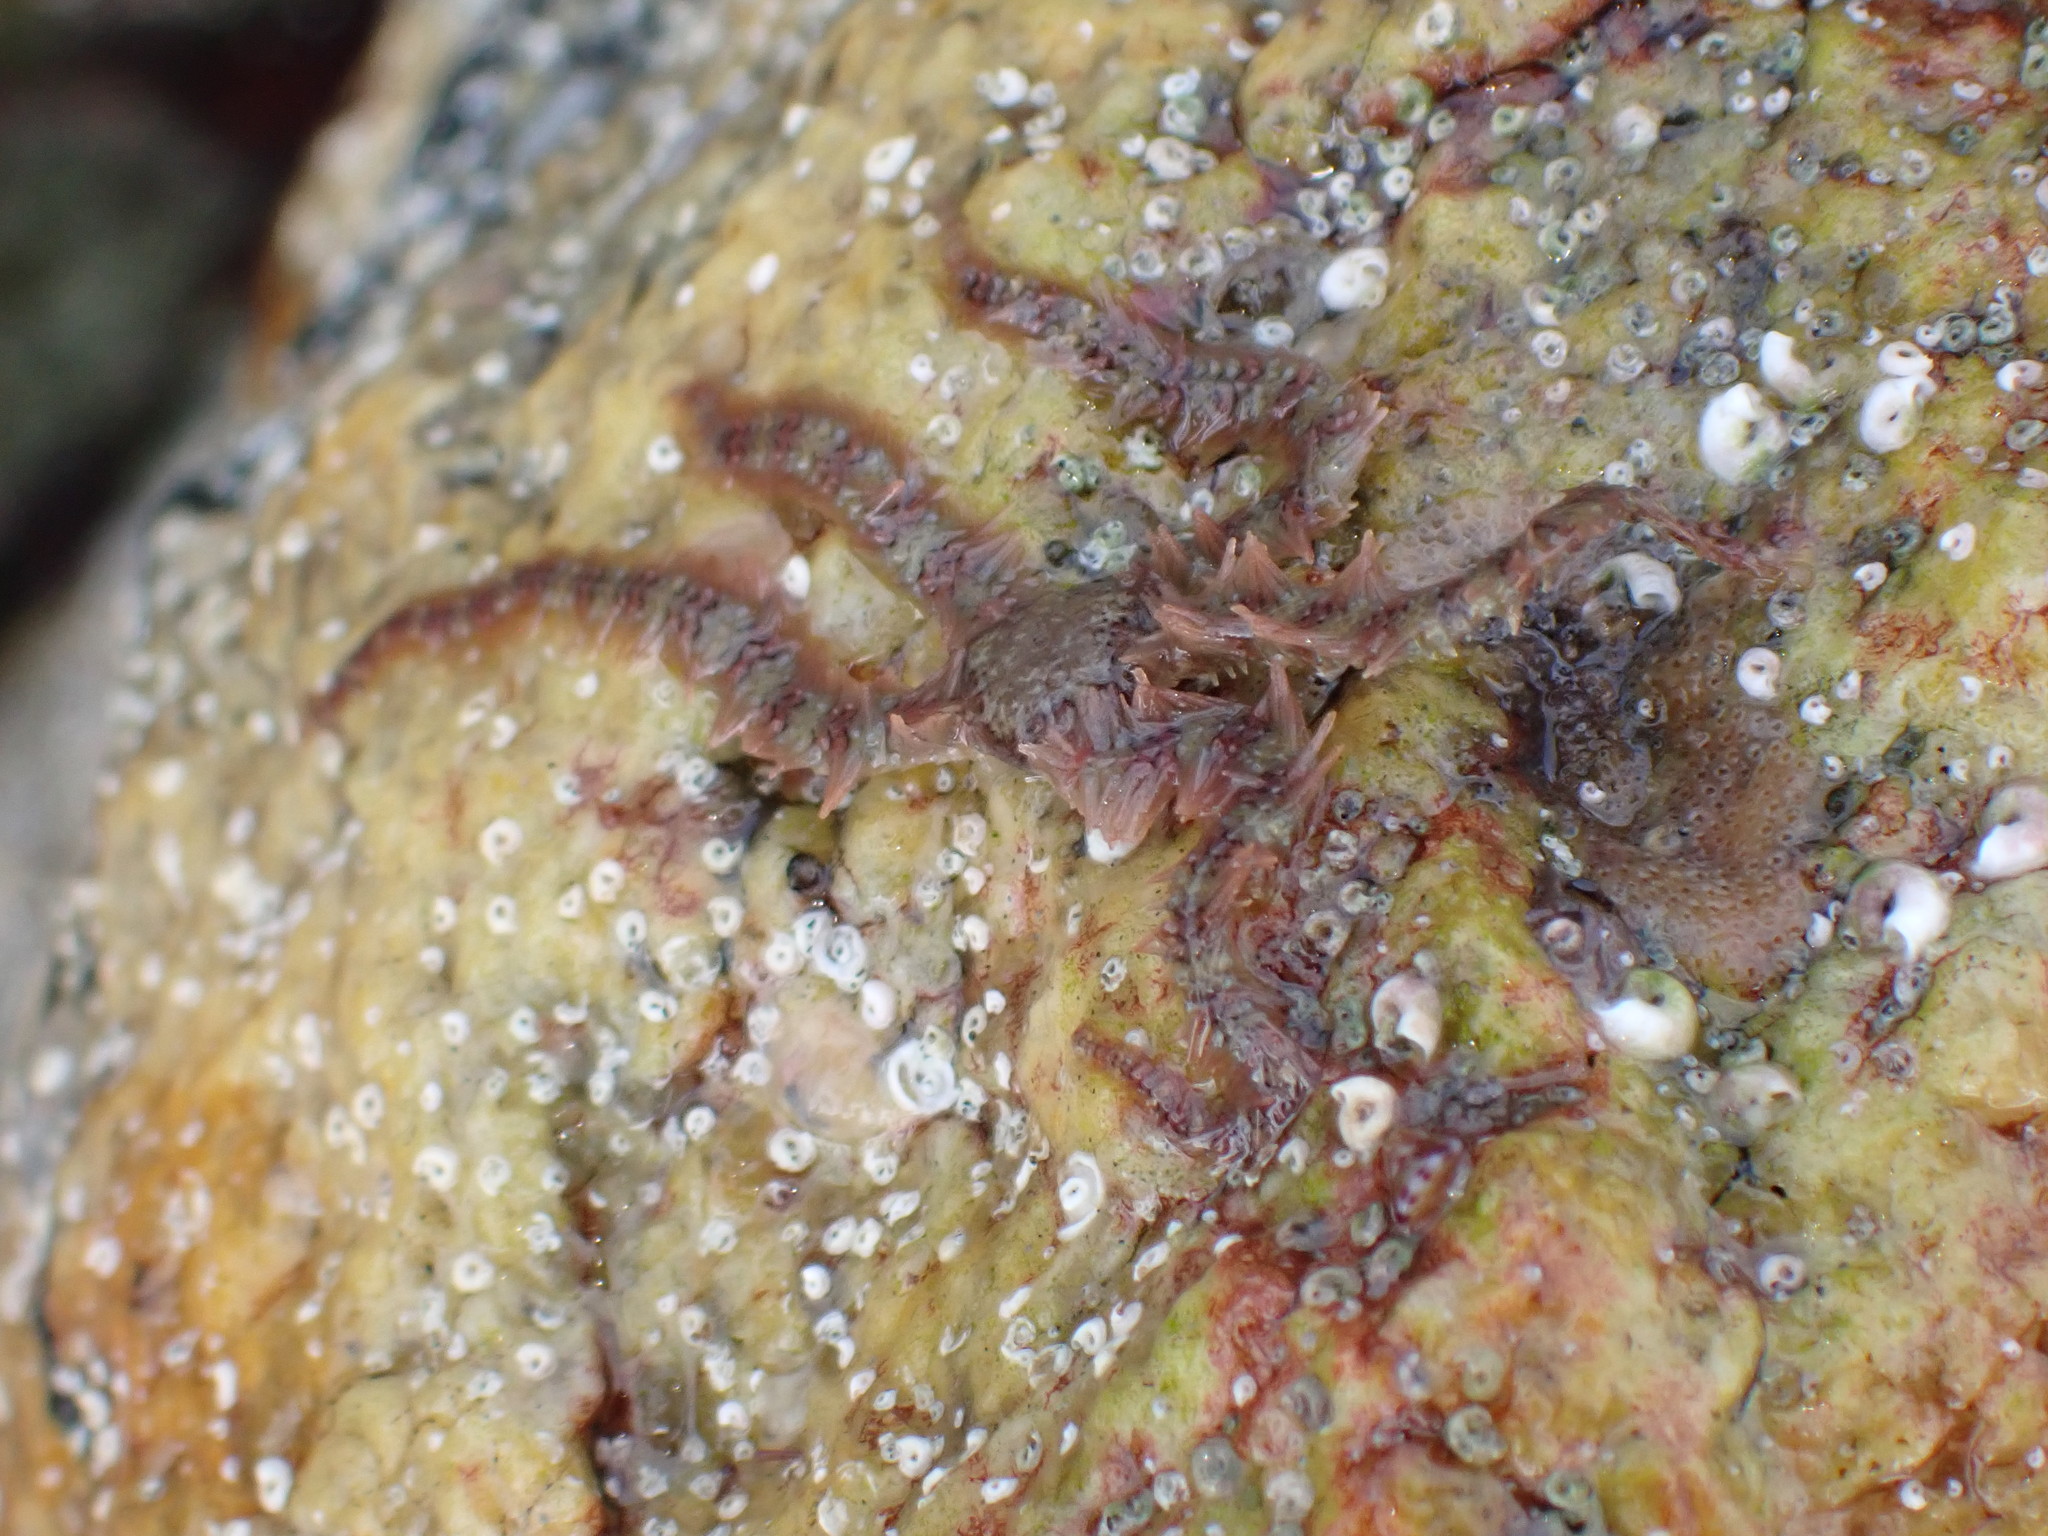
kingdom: Animalia
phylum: Echinodermata
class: Ophiuroidea
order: Amphilepidida
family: Ophiotrichidae
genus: Ophiothrix
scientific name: Ophiothrix fragilis
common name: Common brittlestar
